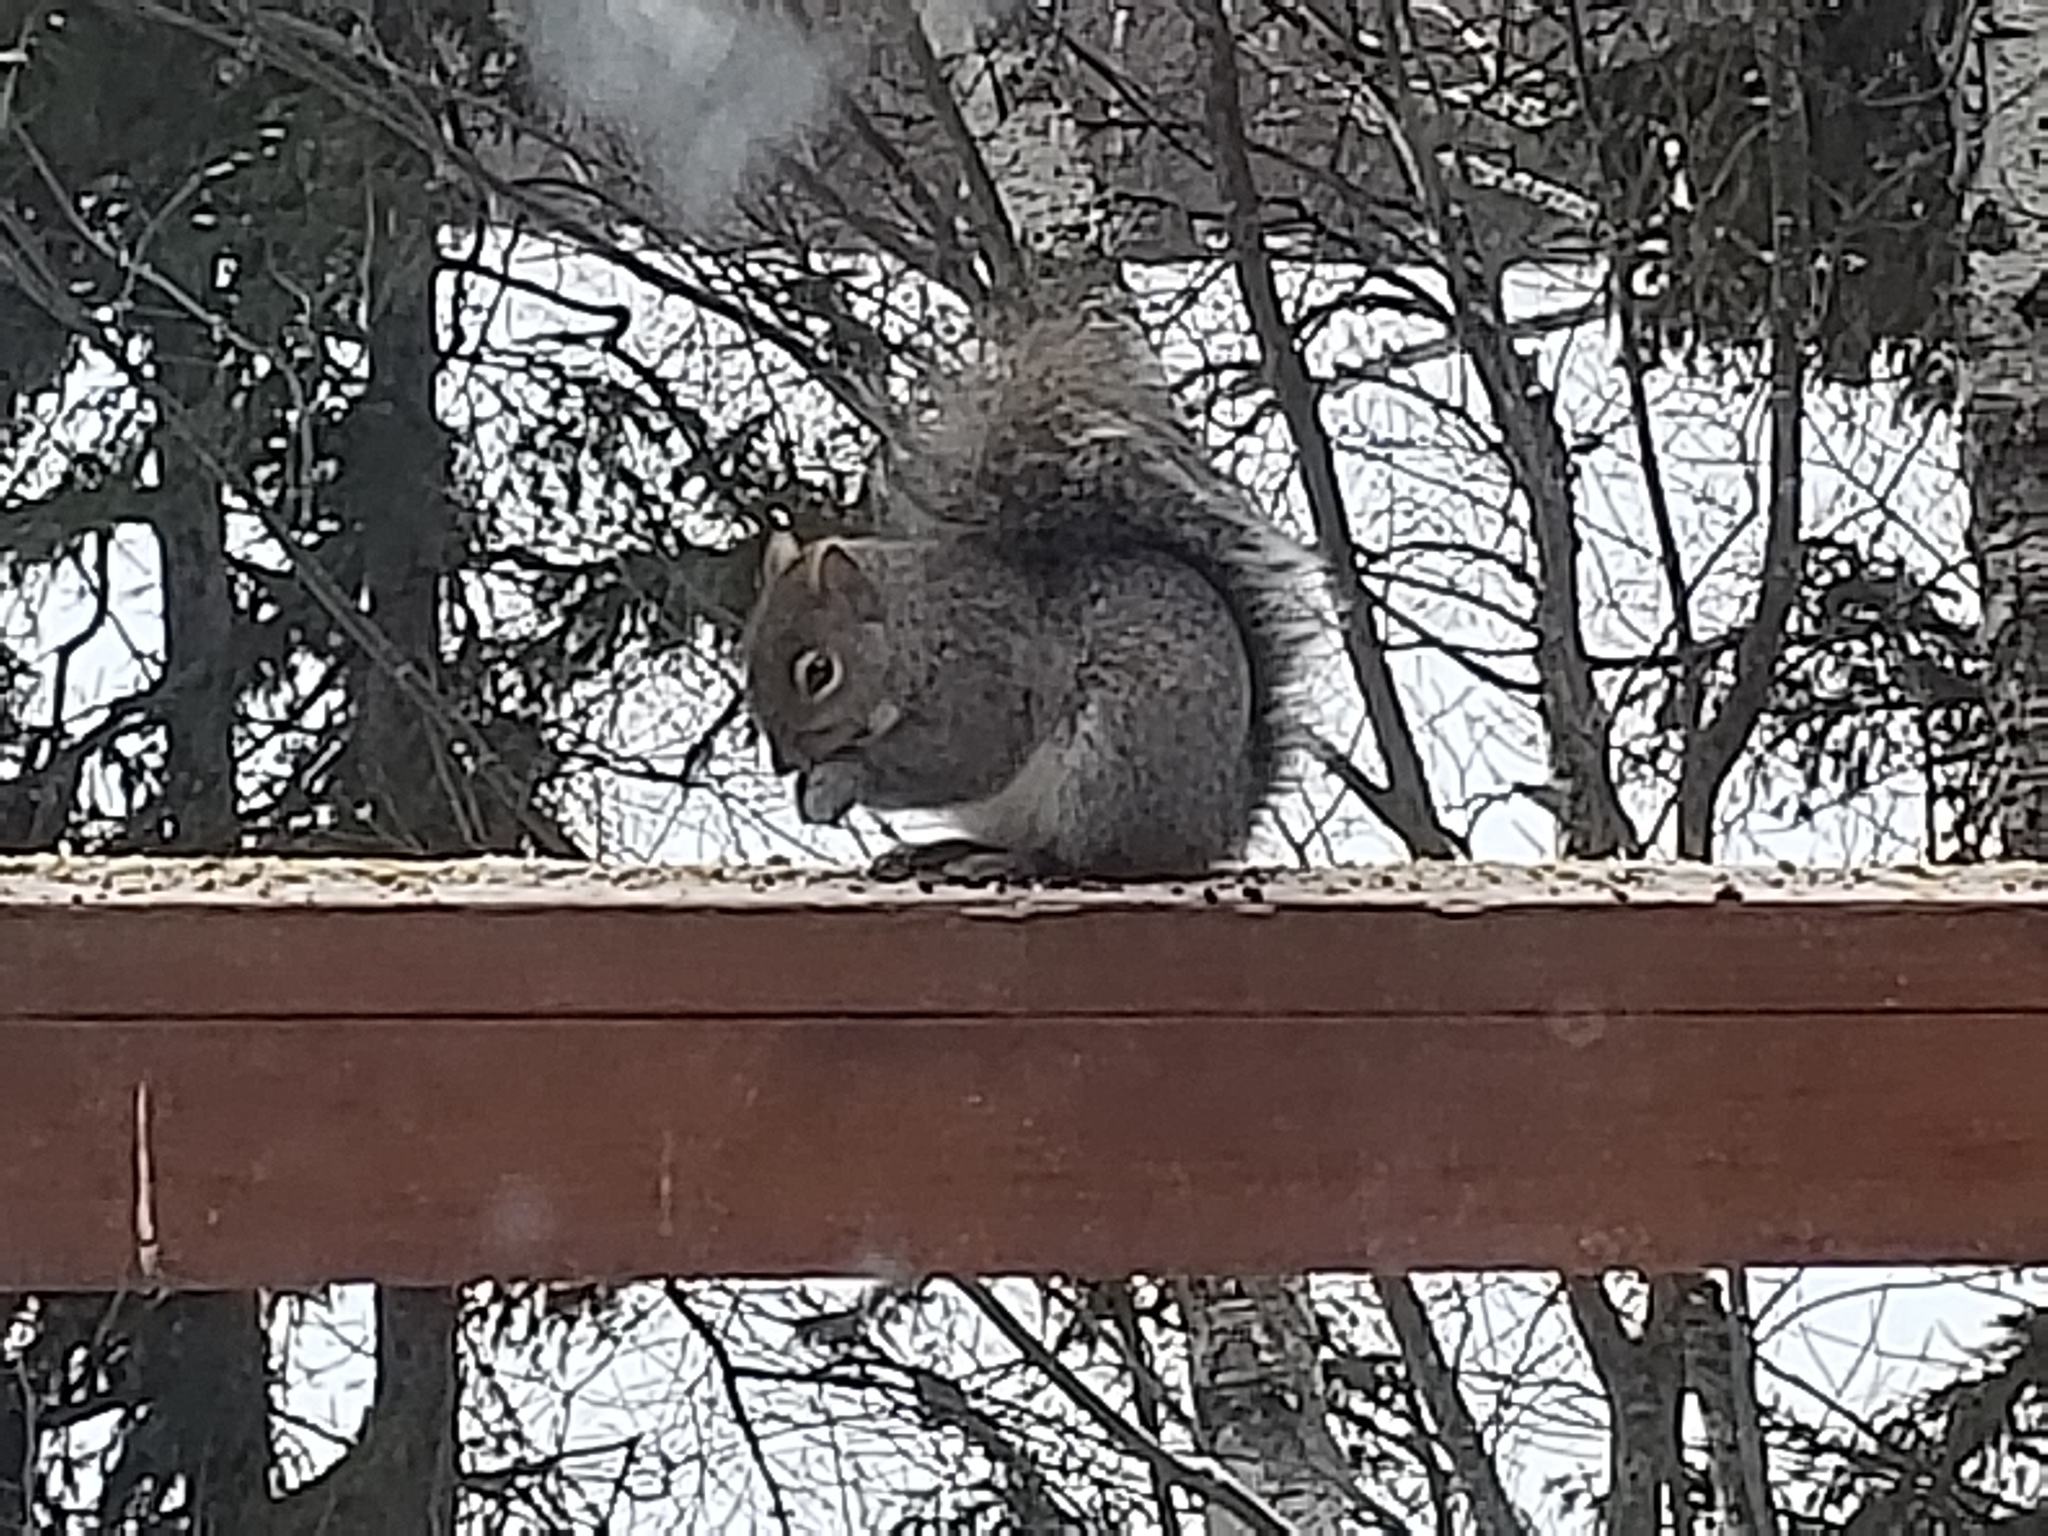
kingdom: Animalia
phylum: Chordata
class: Mammalia
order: Rodentia
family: Sciuridae
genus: Sciurus
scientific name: Sciurus carolinensis
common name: Eastern gray squirrel
